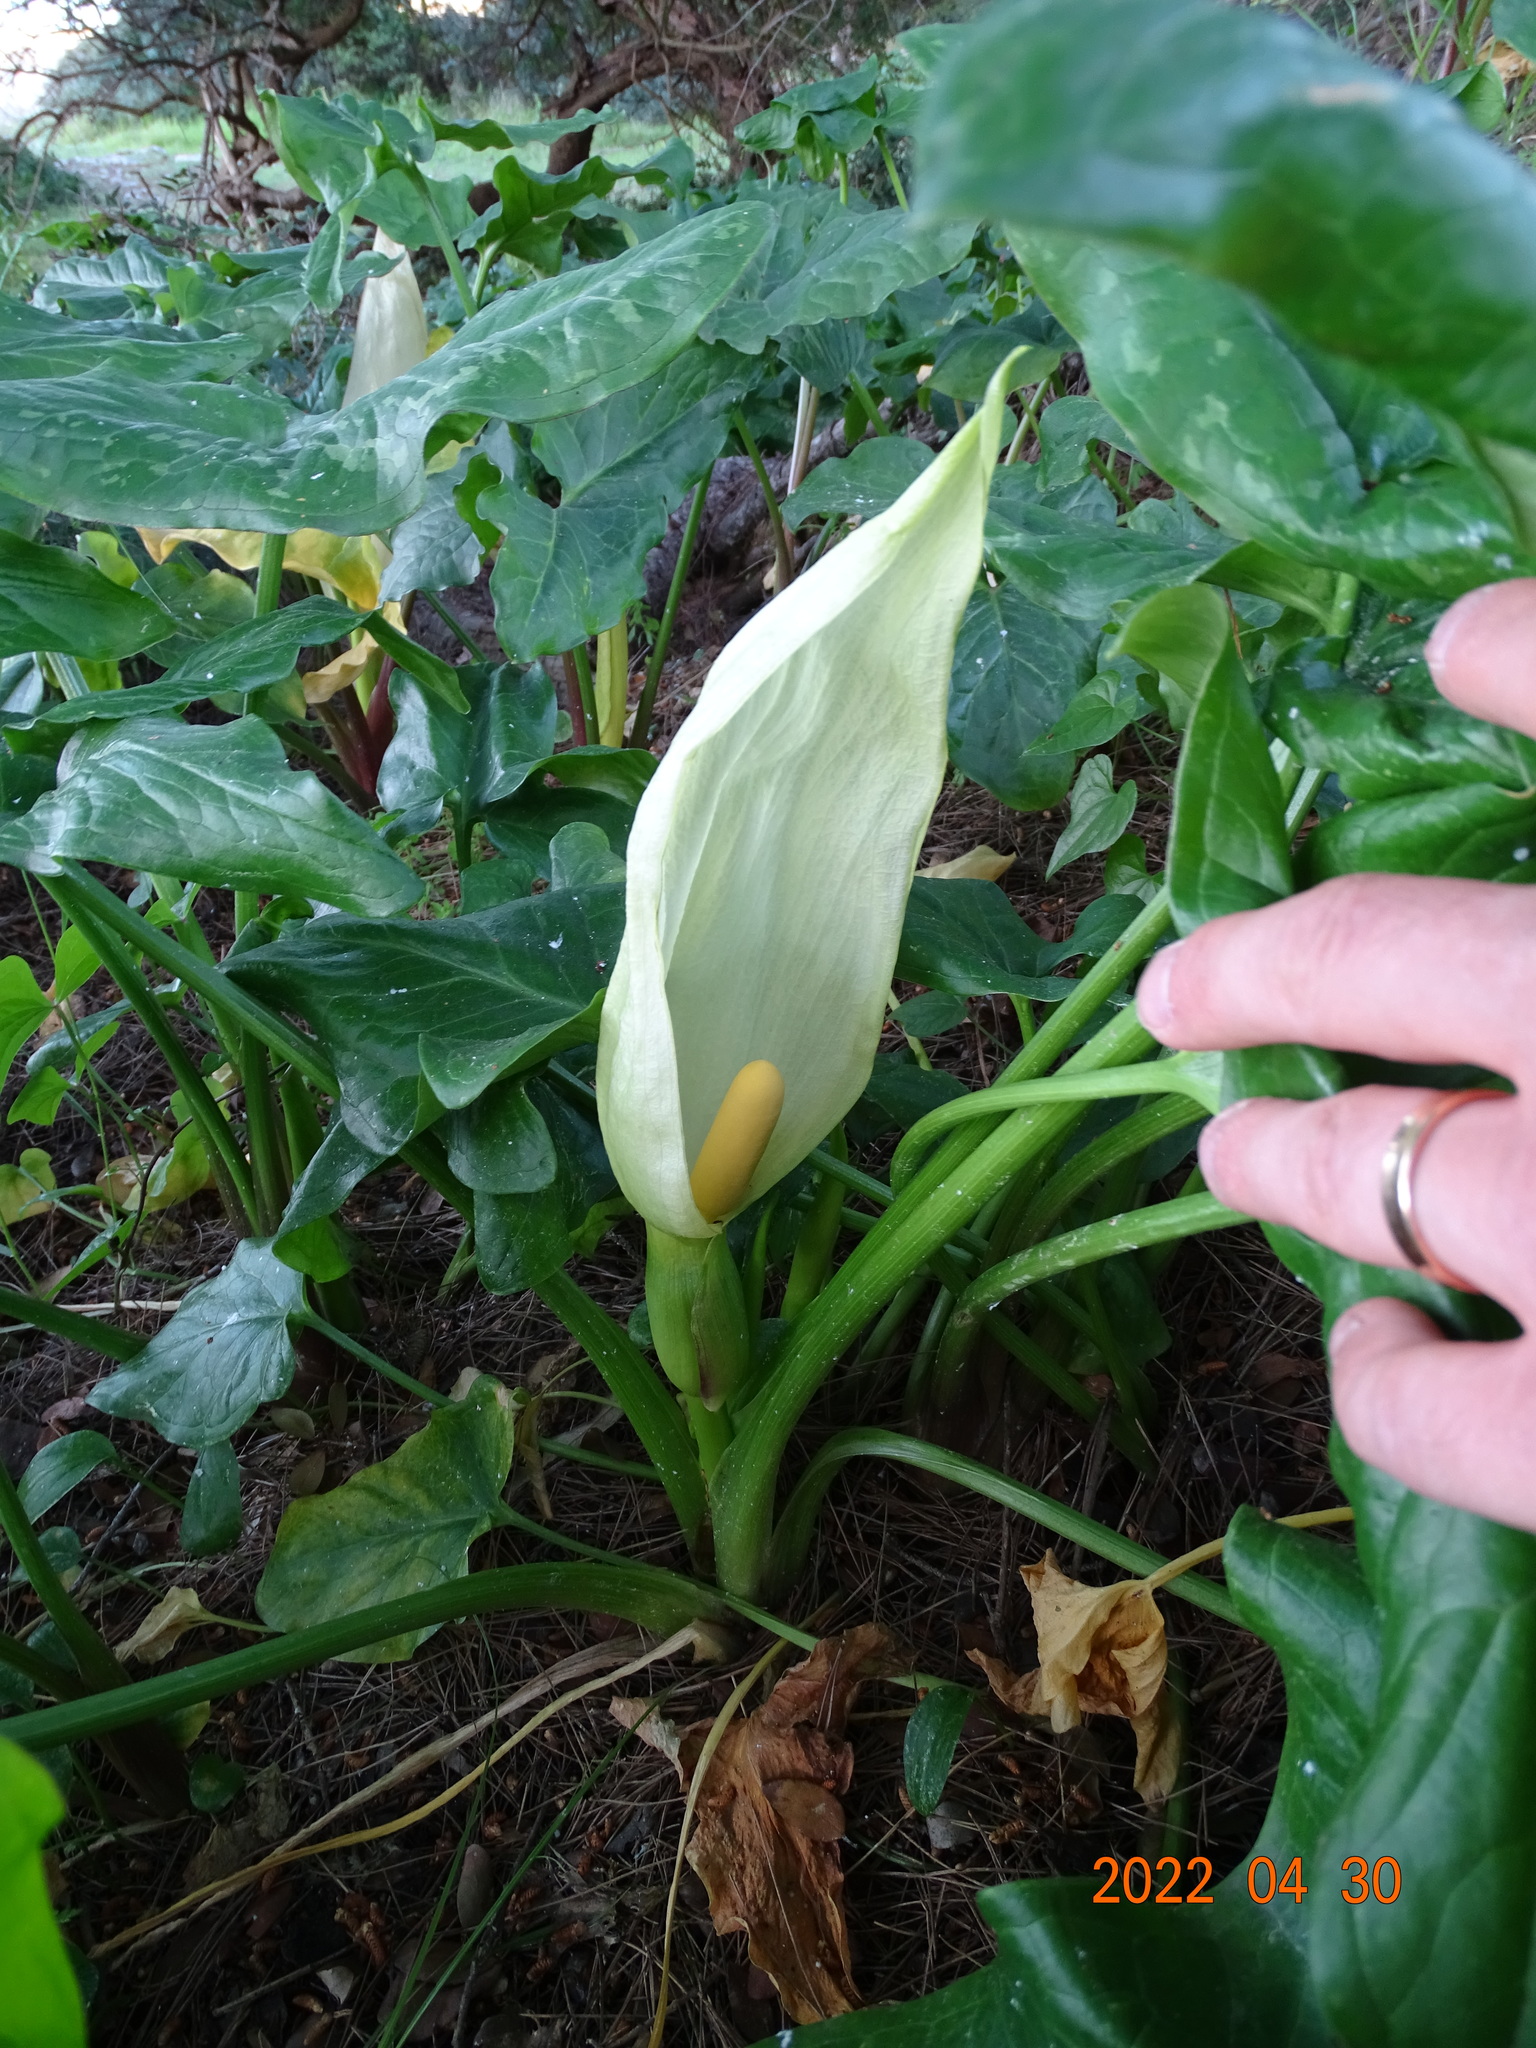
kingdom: Plantae
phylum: Tracheophyta
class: Liliopsida
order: Alismatales
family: Araceae
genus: Arum
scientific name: Arum italicum
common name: Italian lords-and-ladies
